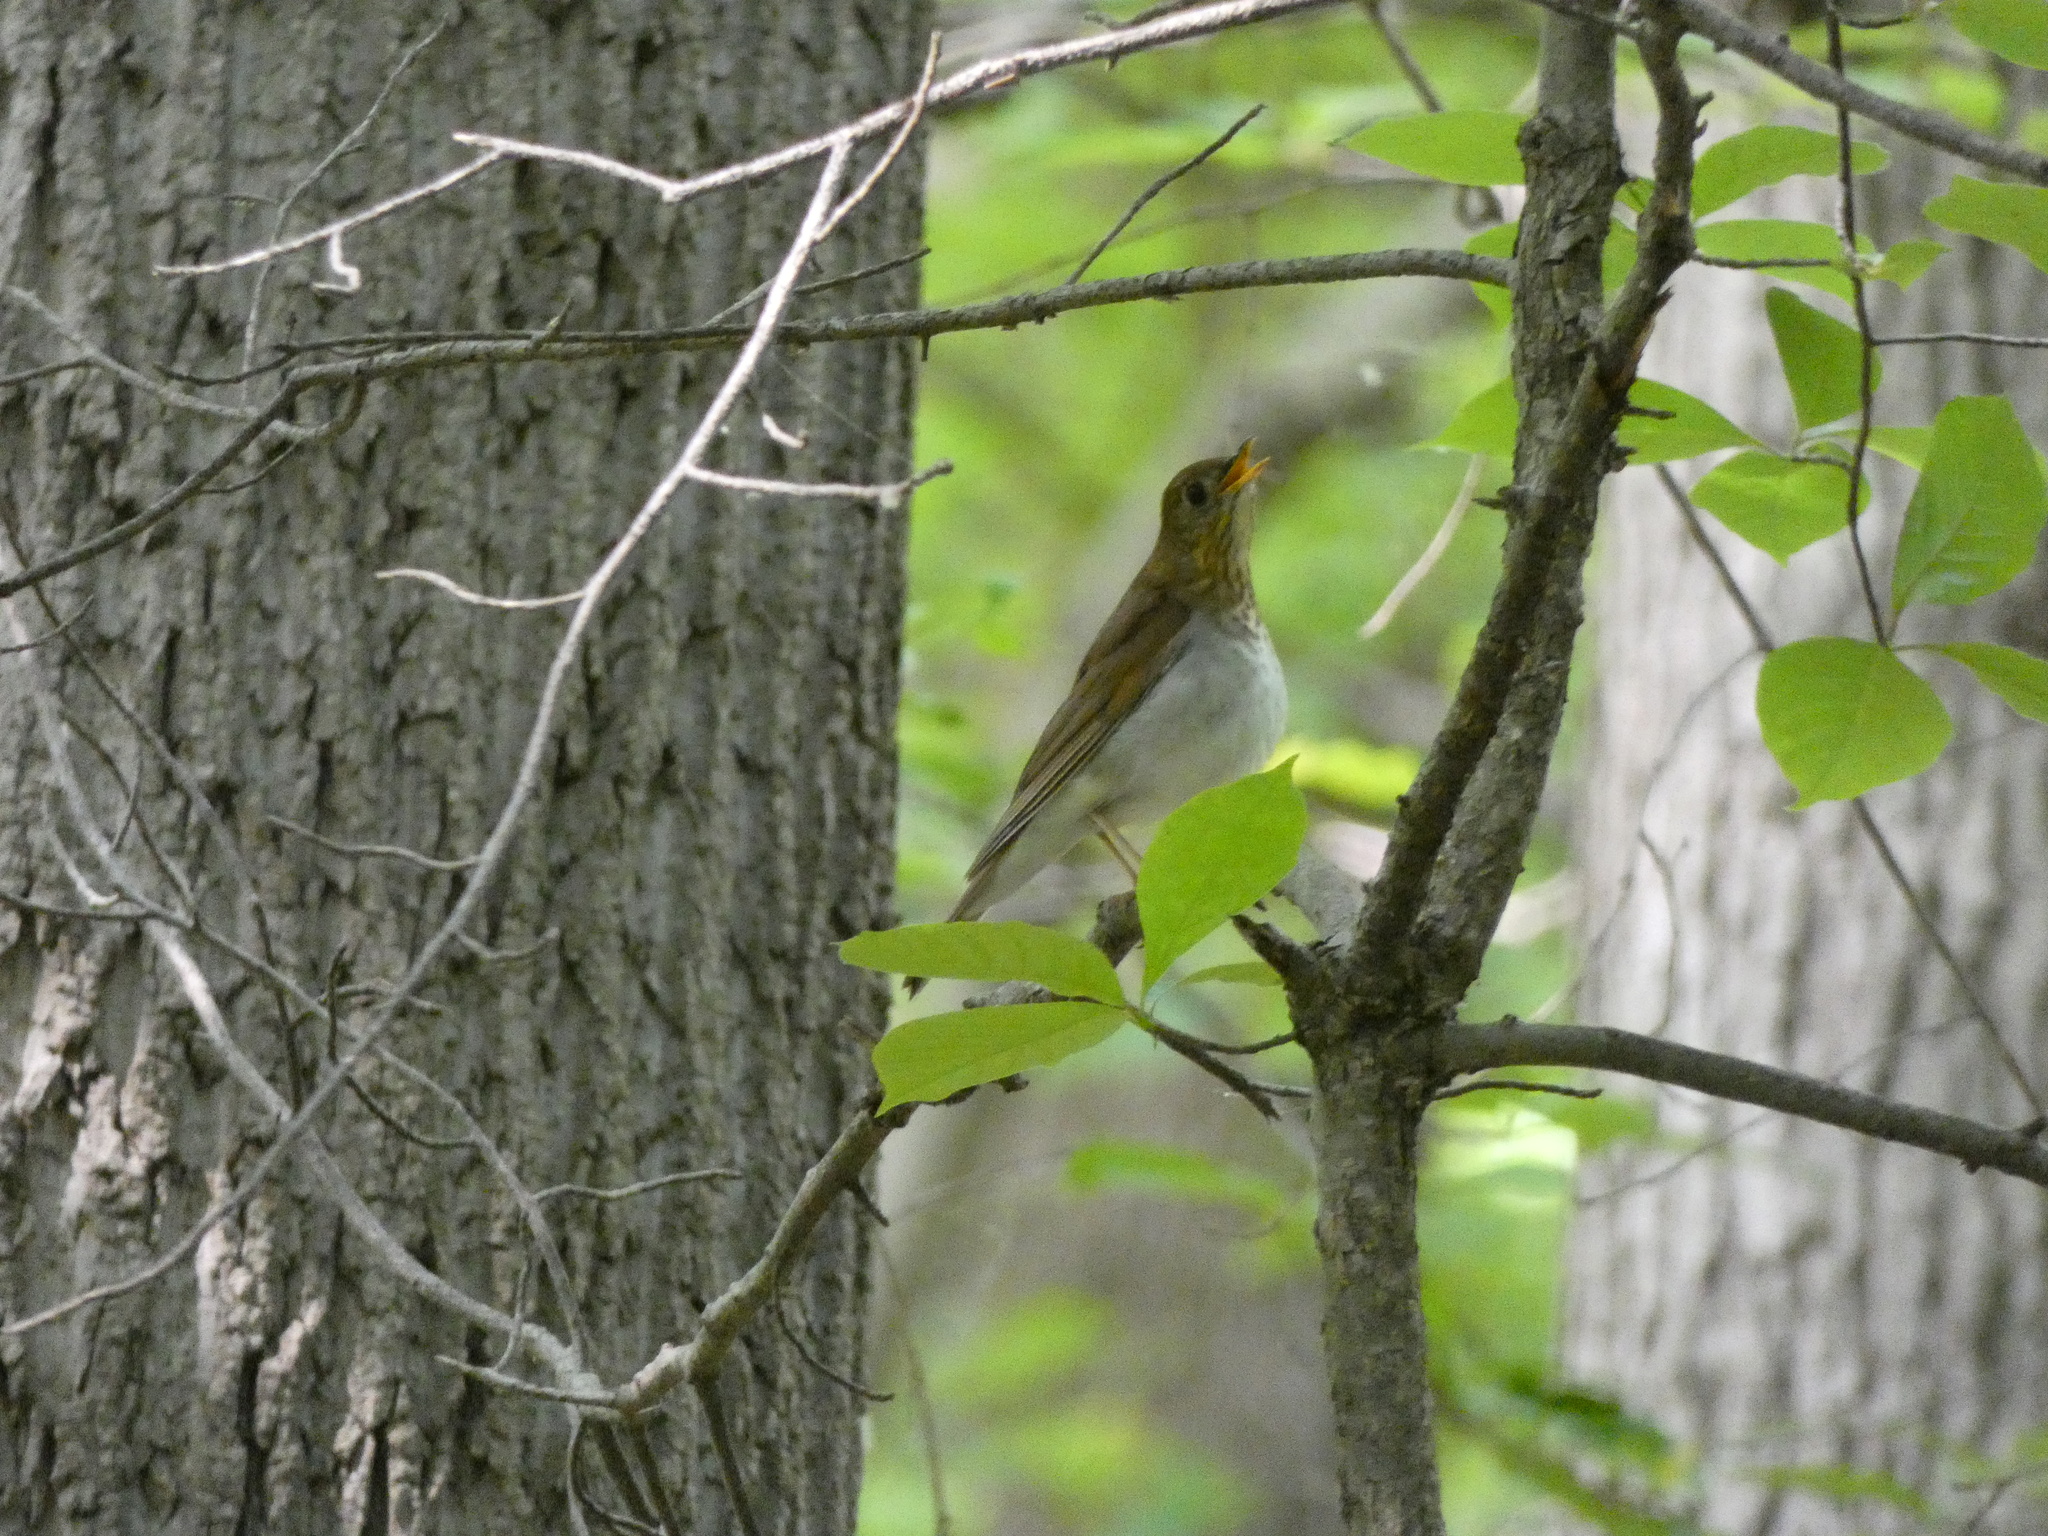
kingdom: Animalia
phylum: Chordata
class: Aves
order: Passeriformes
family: Turdidae
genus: Catharus
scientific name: Catharus fuscescens
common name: Veery
